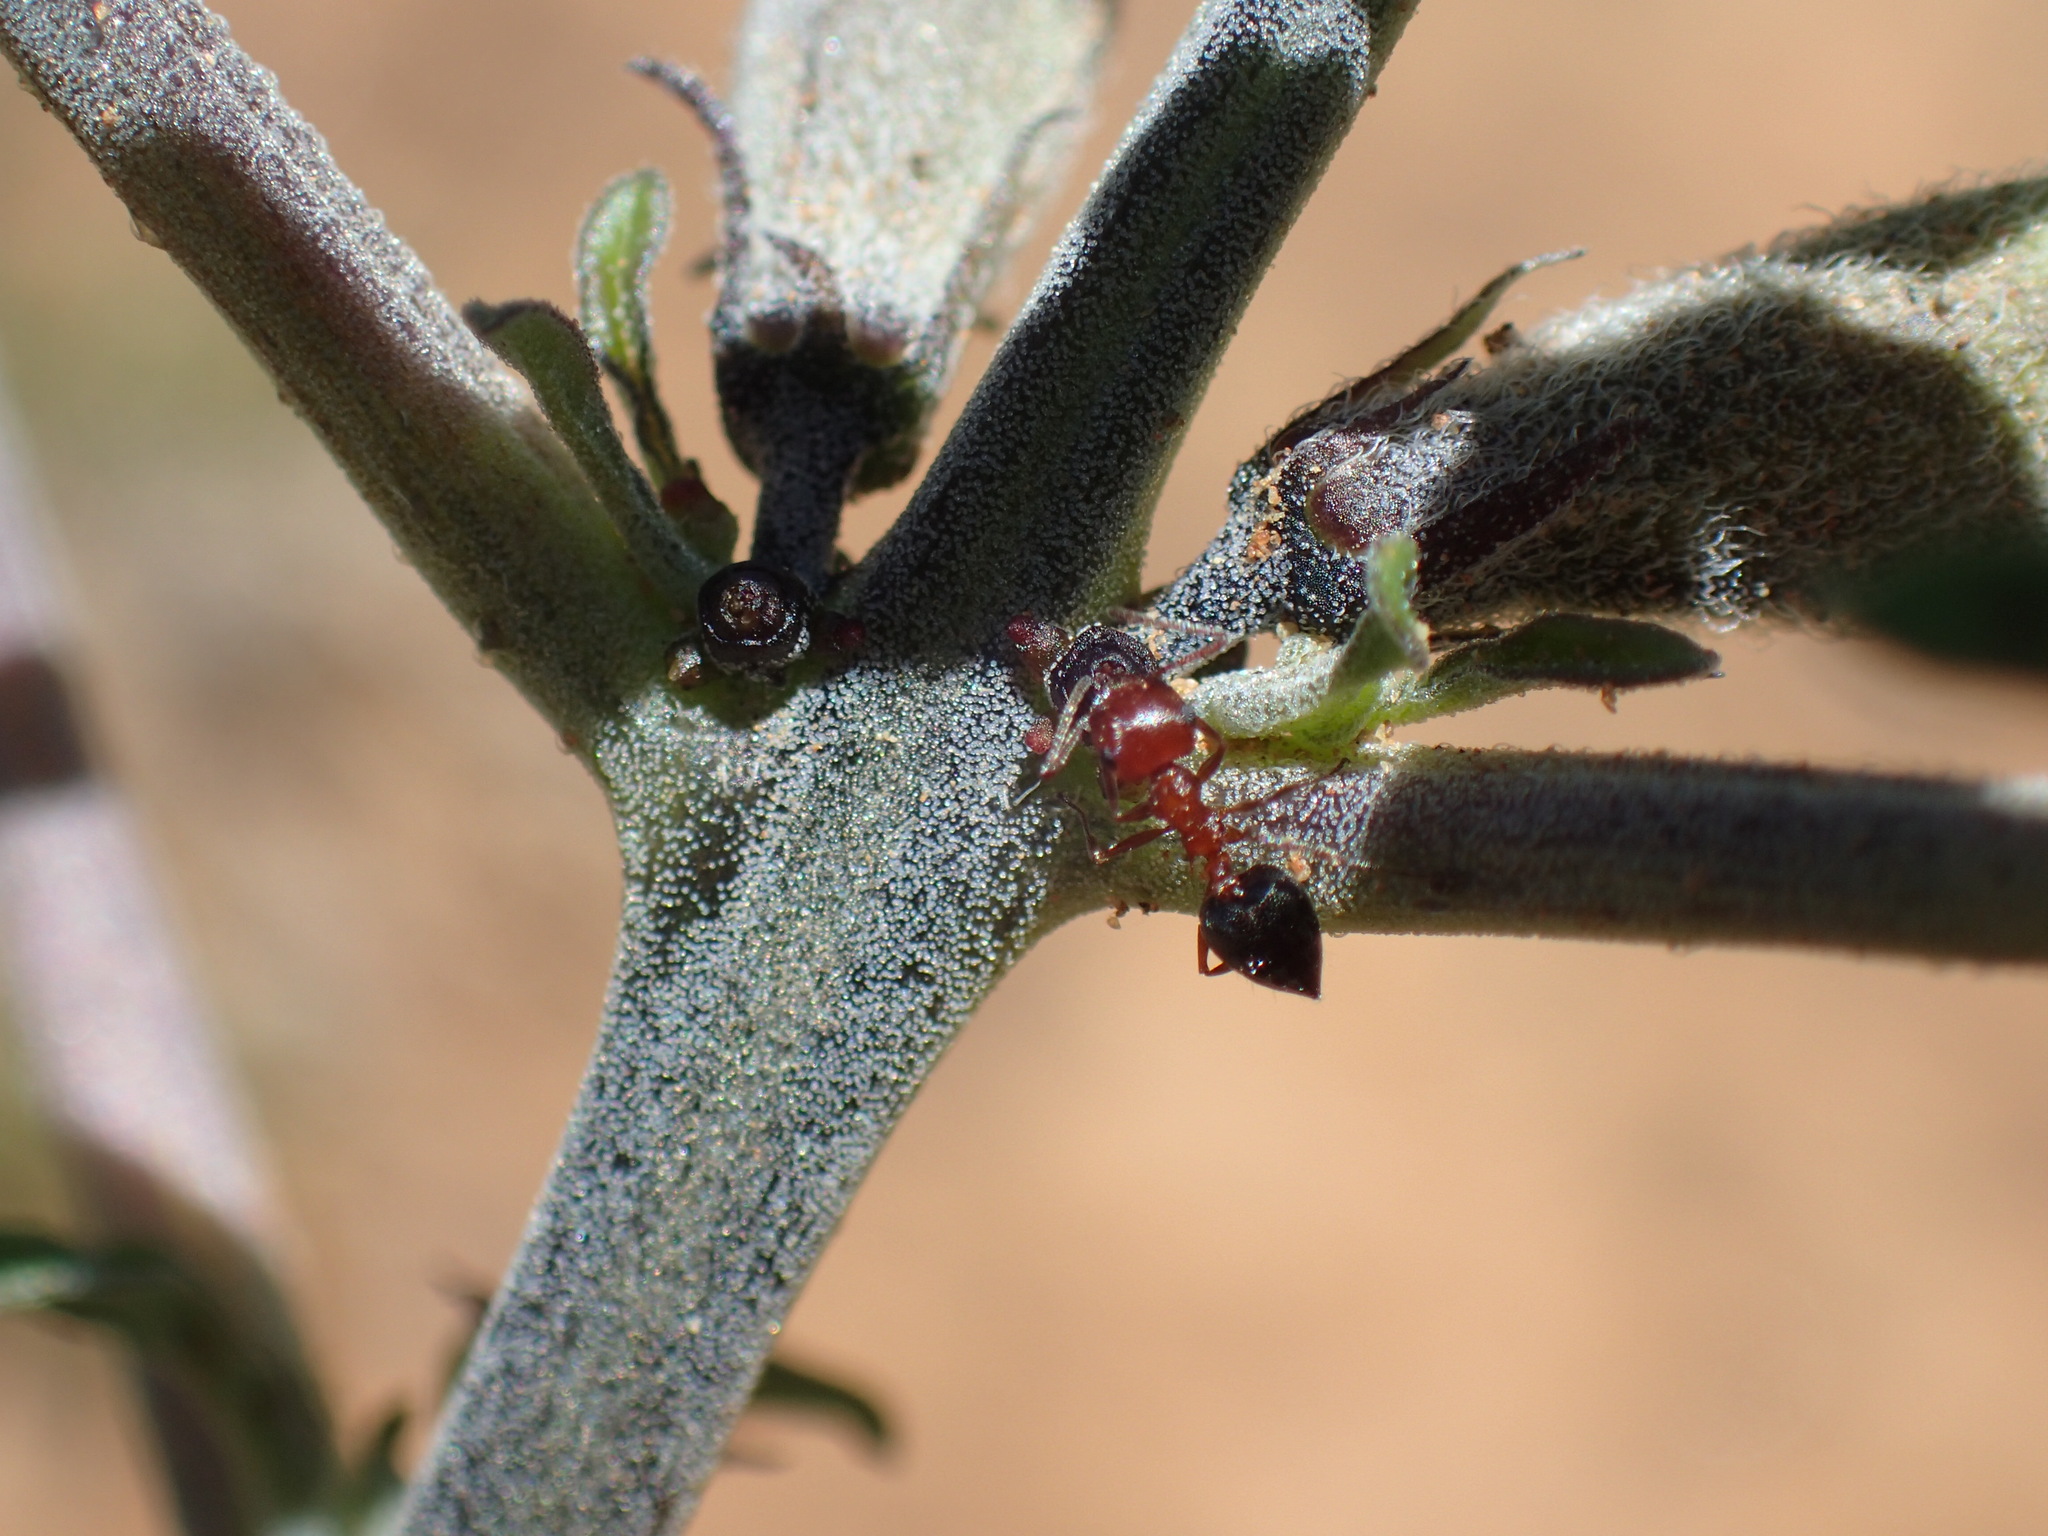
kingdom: Animalia
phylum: Arthropoda
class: Insecta
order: Hymenoptera
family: Formicidae
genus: Crematogaster
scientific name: Crematogaster melanogaster
